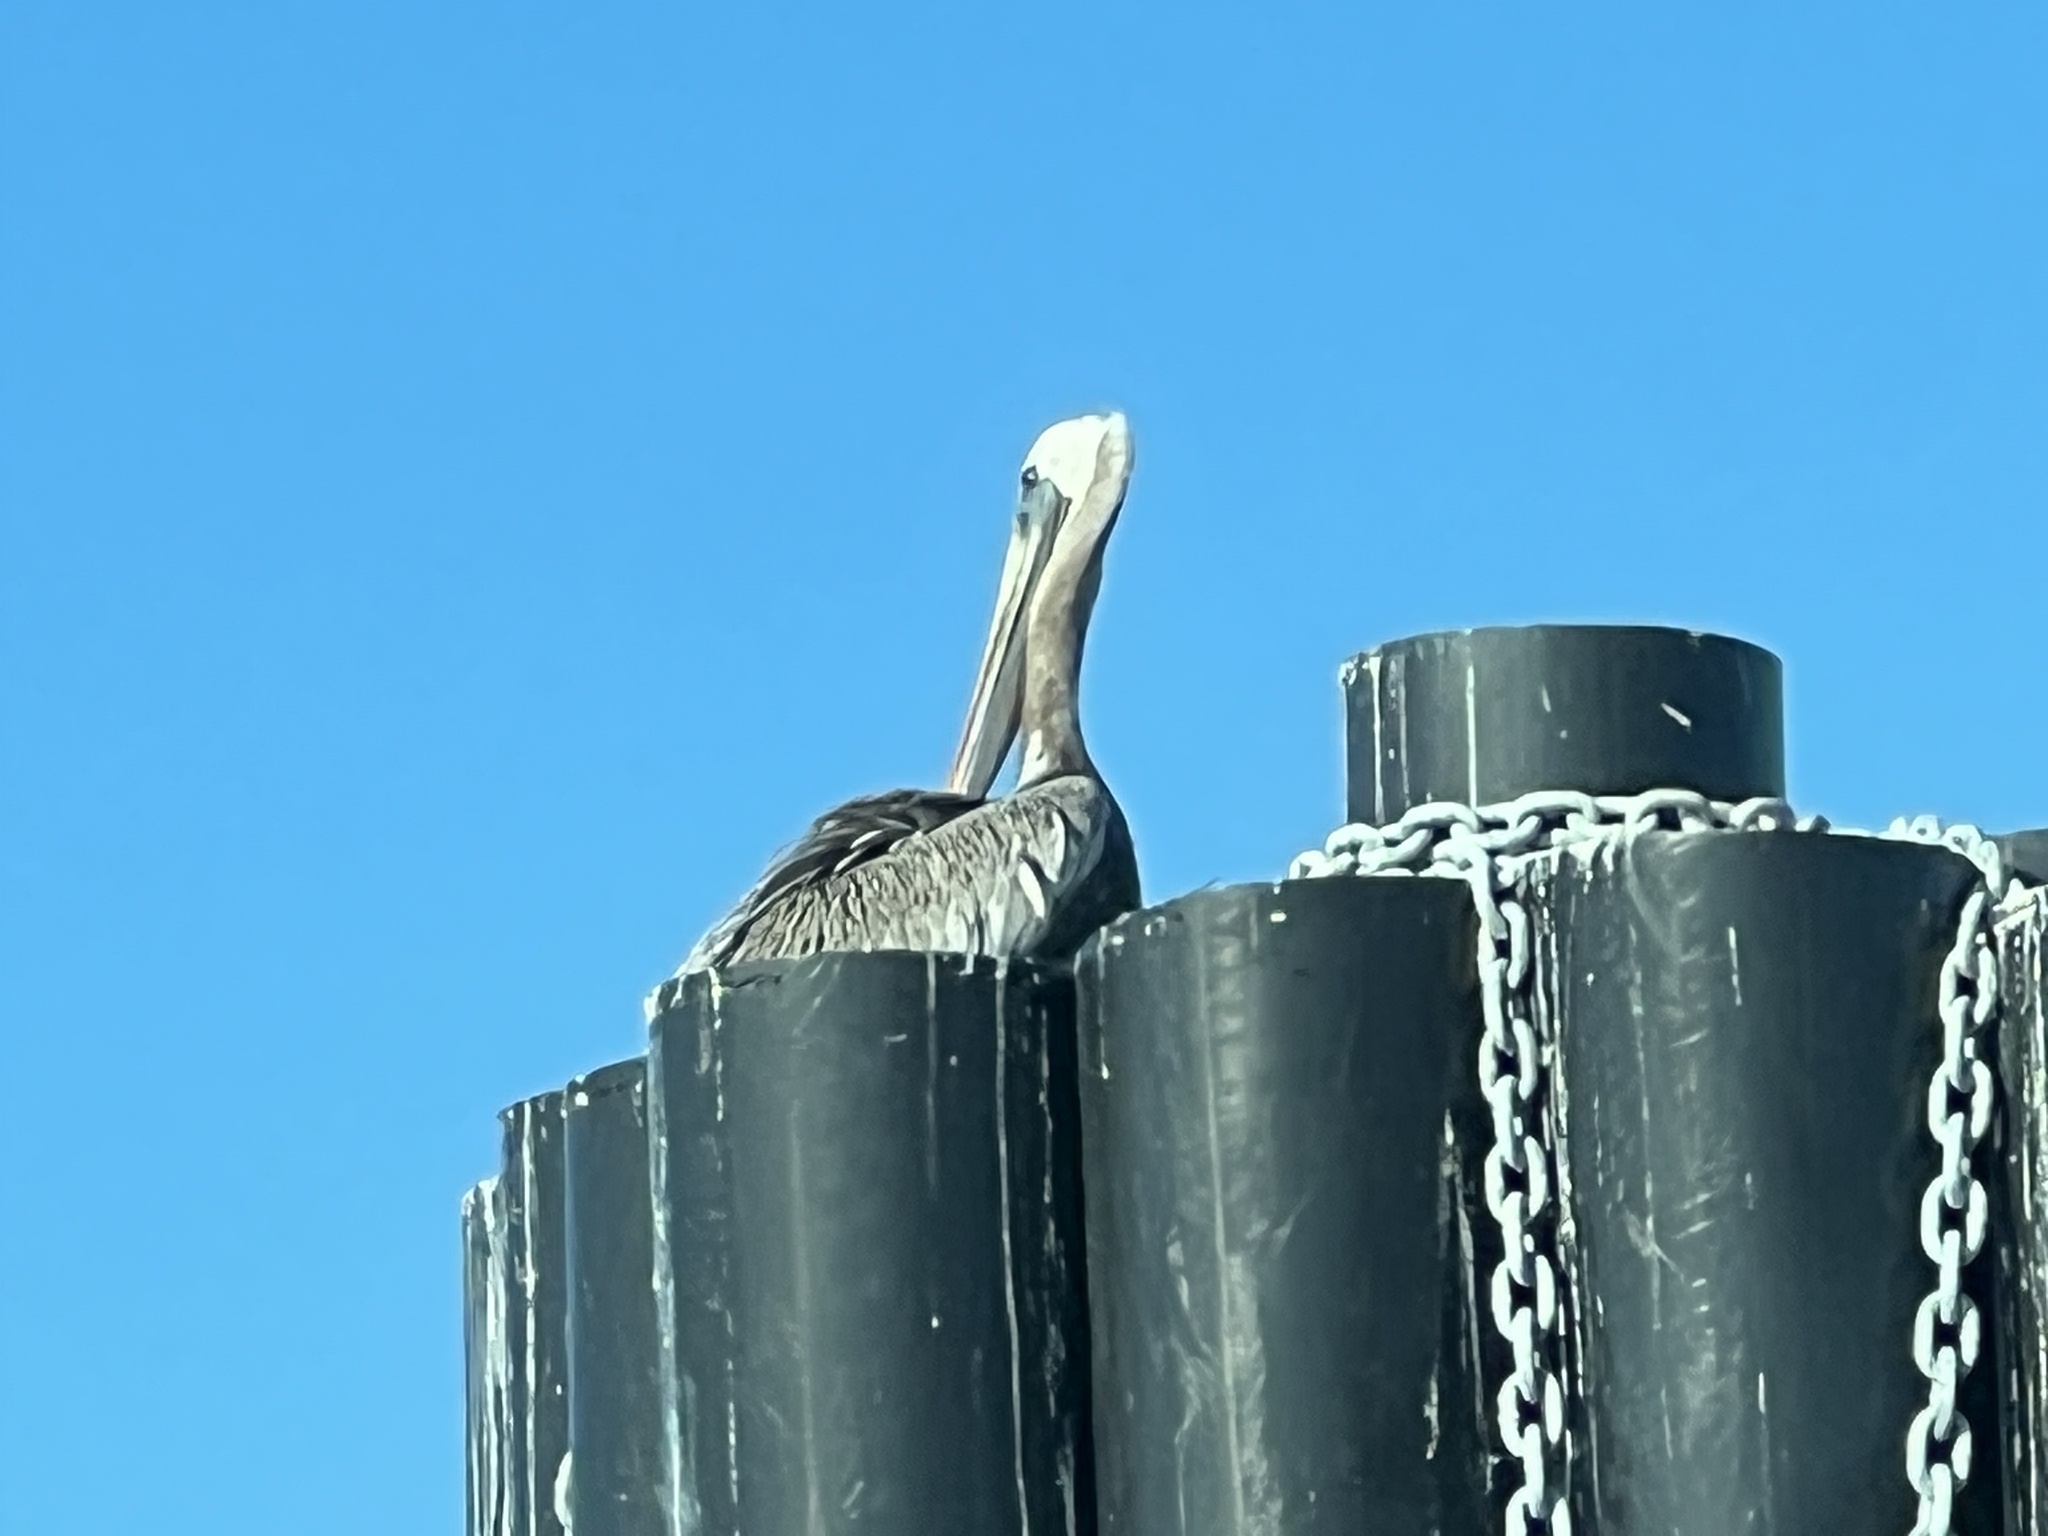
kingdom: Animalia
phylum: Chordata
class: Aves
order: Pelecaniformes
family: Pelecanidae
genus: Pelecanus
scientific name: Pelecanus occidentalis
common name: Brown pelican
